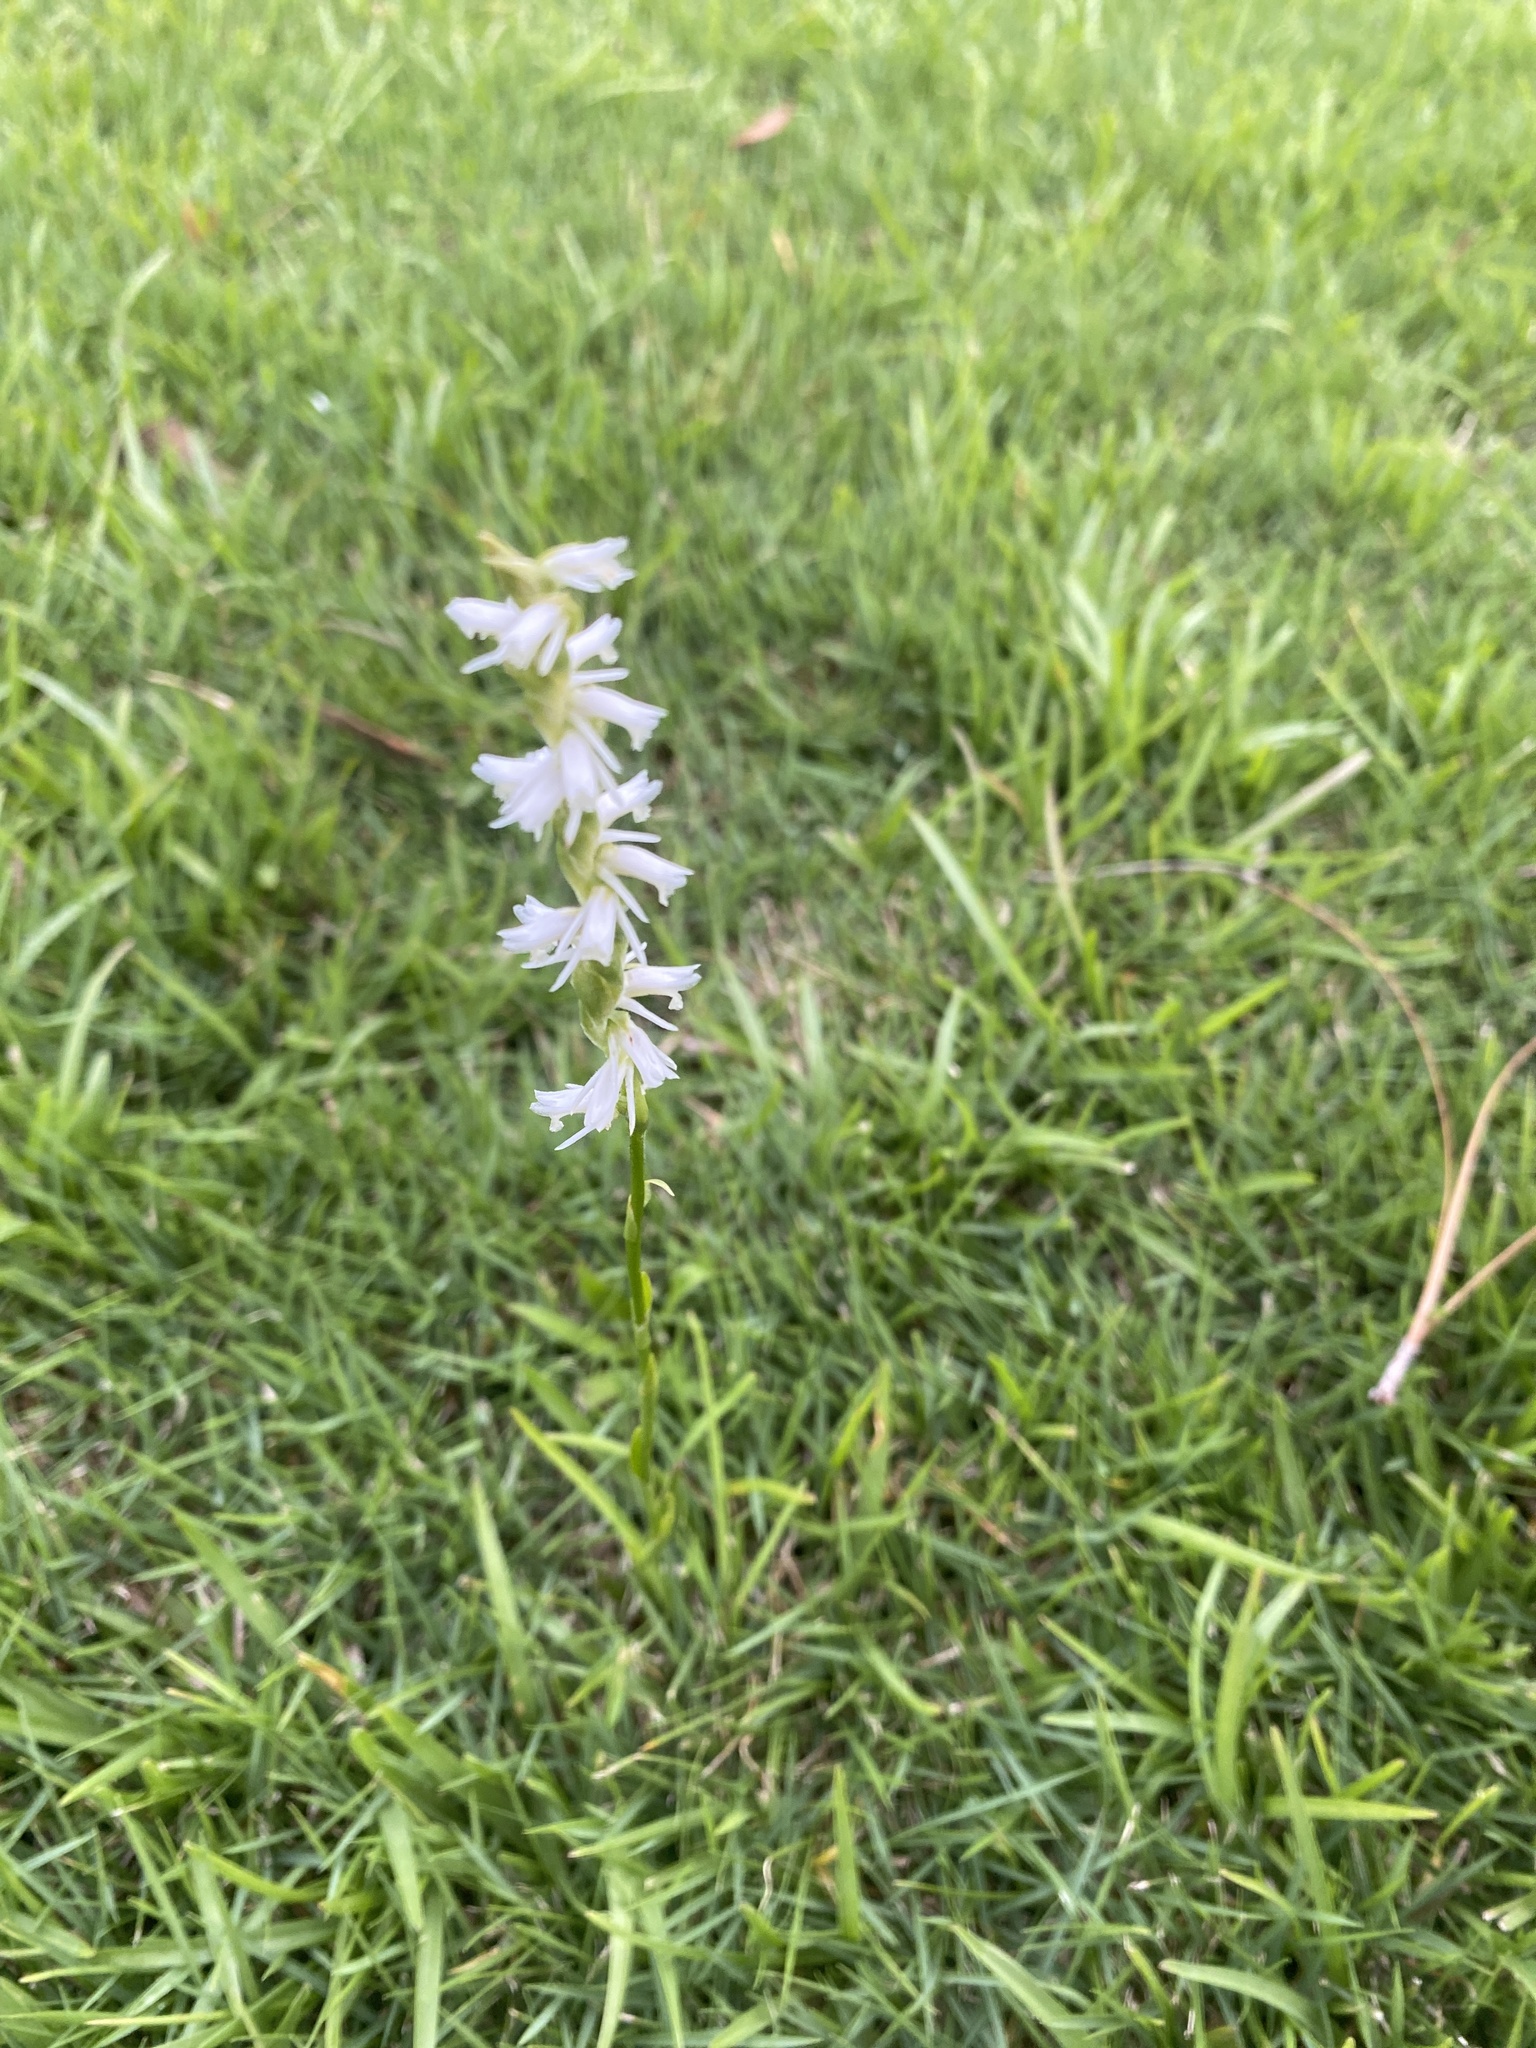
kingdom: Plantae
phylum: Tracheophyta
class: Liliopsida
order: Asparagales
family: Orchidaceae
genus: Spiranthes
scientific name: Spiranthes vernalis
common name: Spring ladies'-tresses
